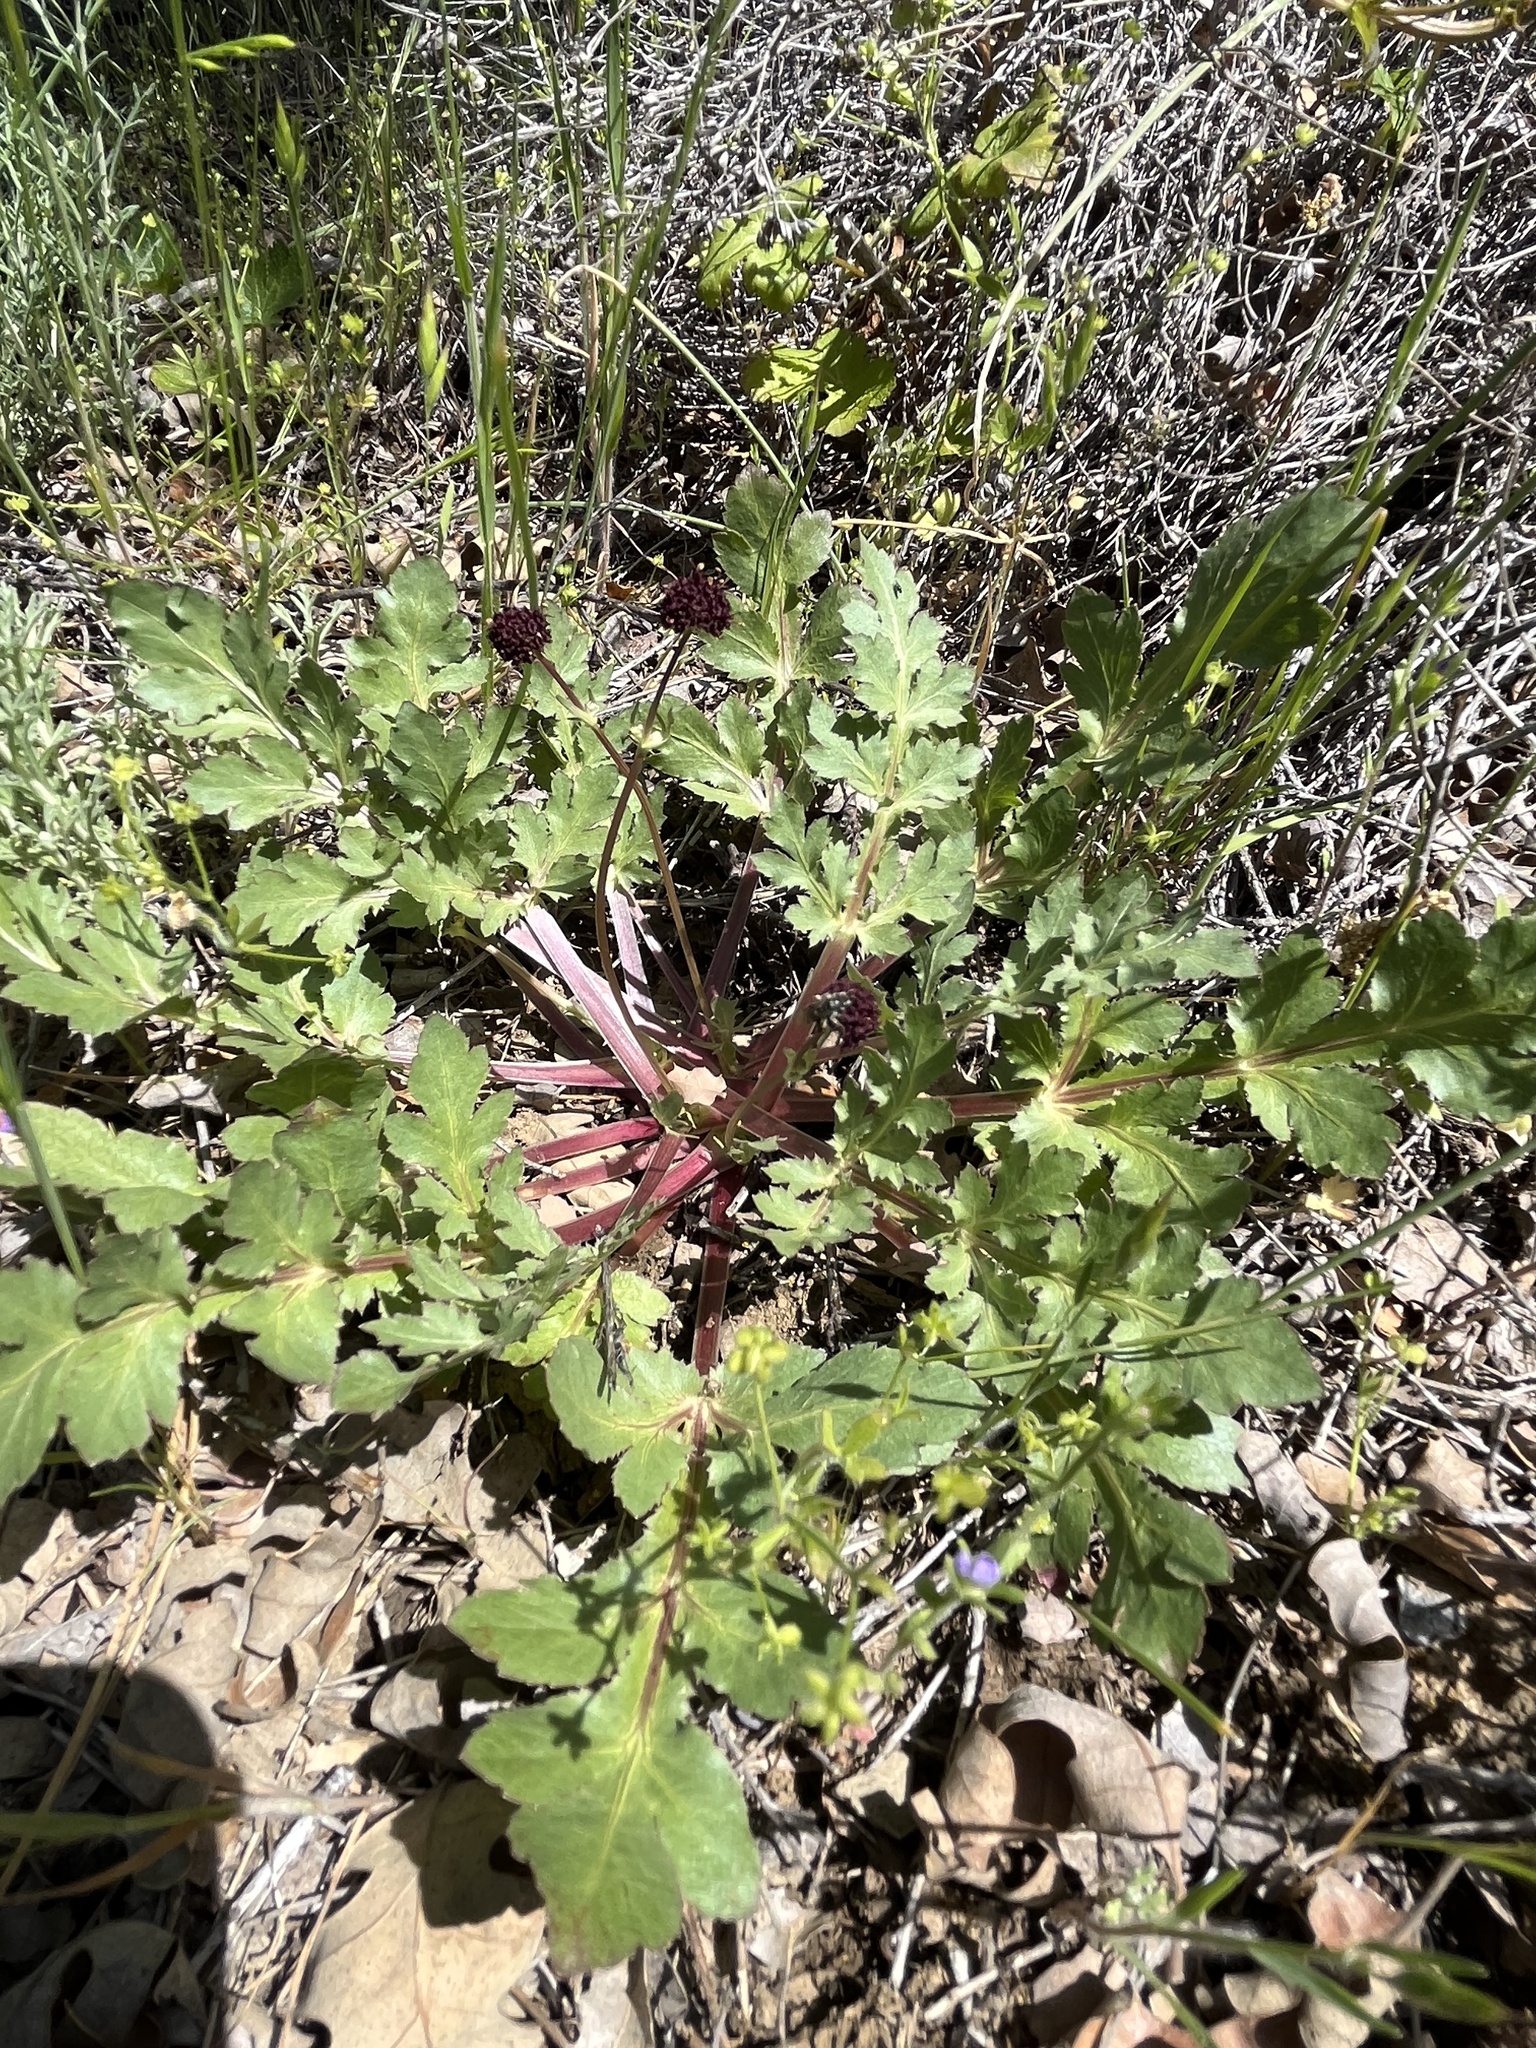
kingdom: Plantae
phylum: Tracheophyta
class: Magnoliopsida
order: Apiales
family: Apiaceae
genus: Sanicula
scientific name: Sanicula bipinnatifida
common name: Shoe-buttons
